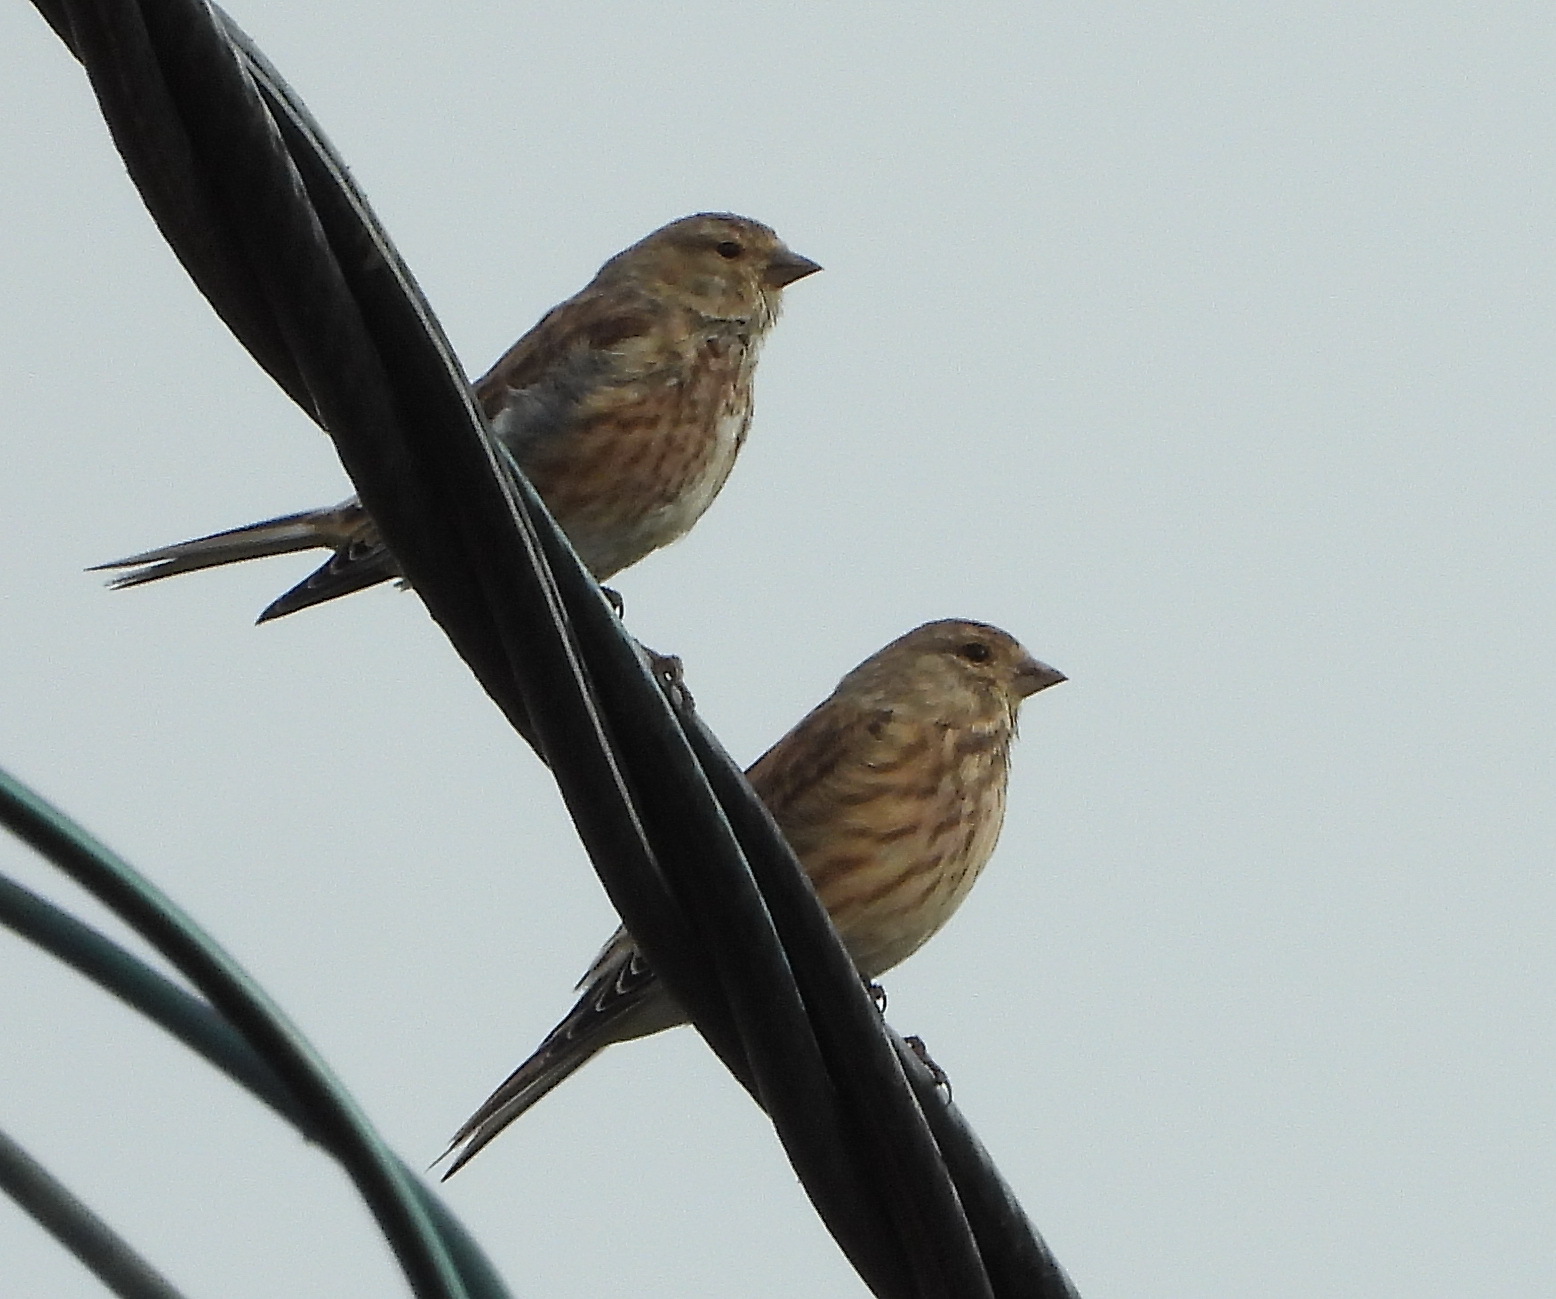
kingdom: Animalia
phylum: Chordata
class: Aves
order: Passeriformes
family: Fringillidae
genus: Linaria
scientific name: Linaria cannabina
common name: Common linnet
